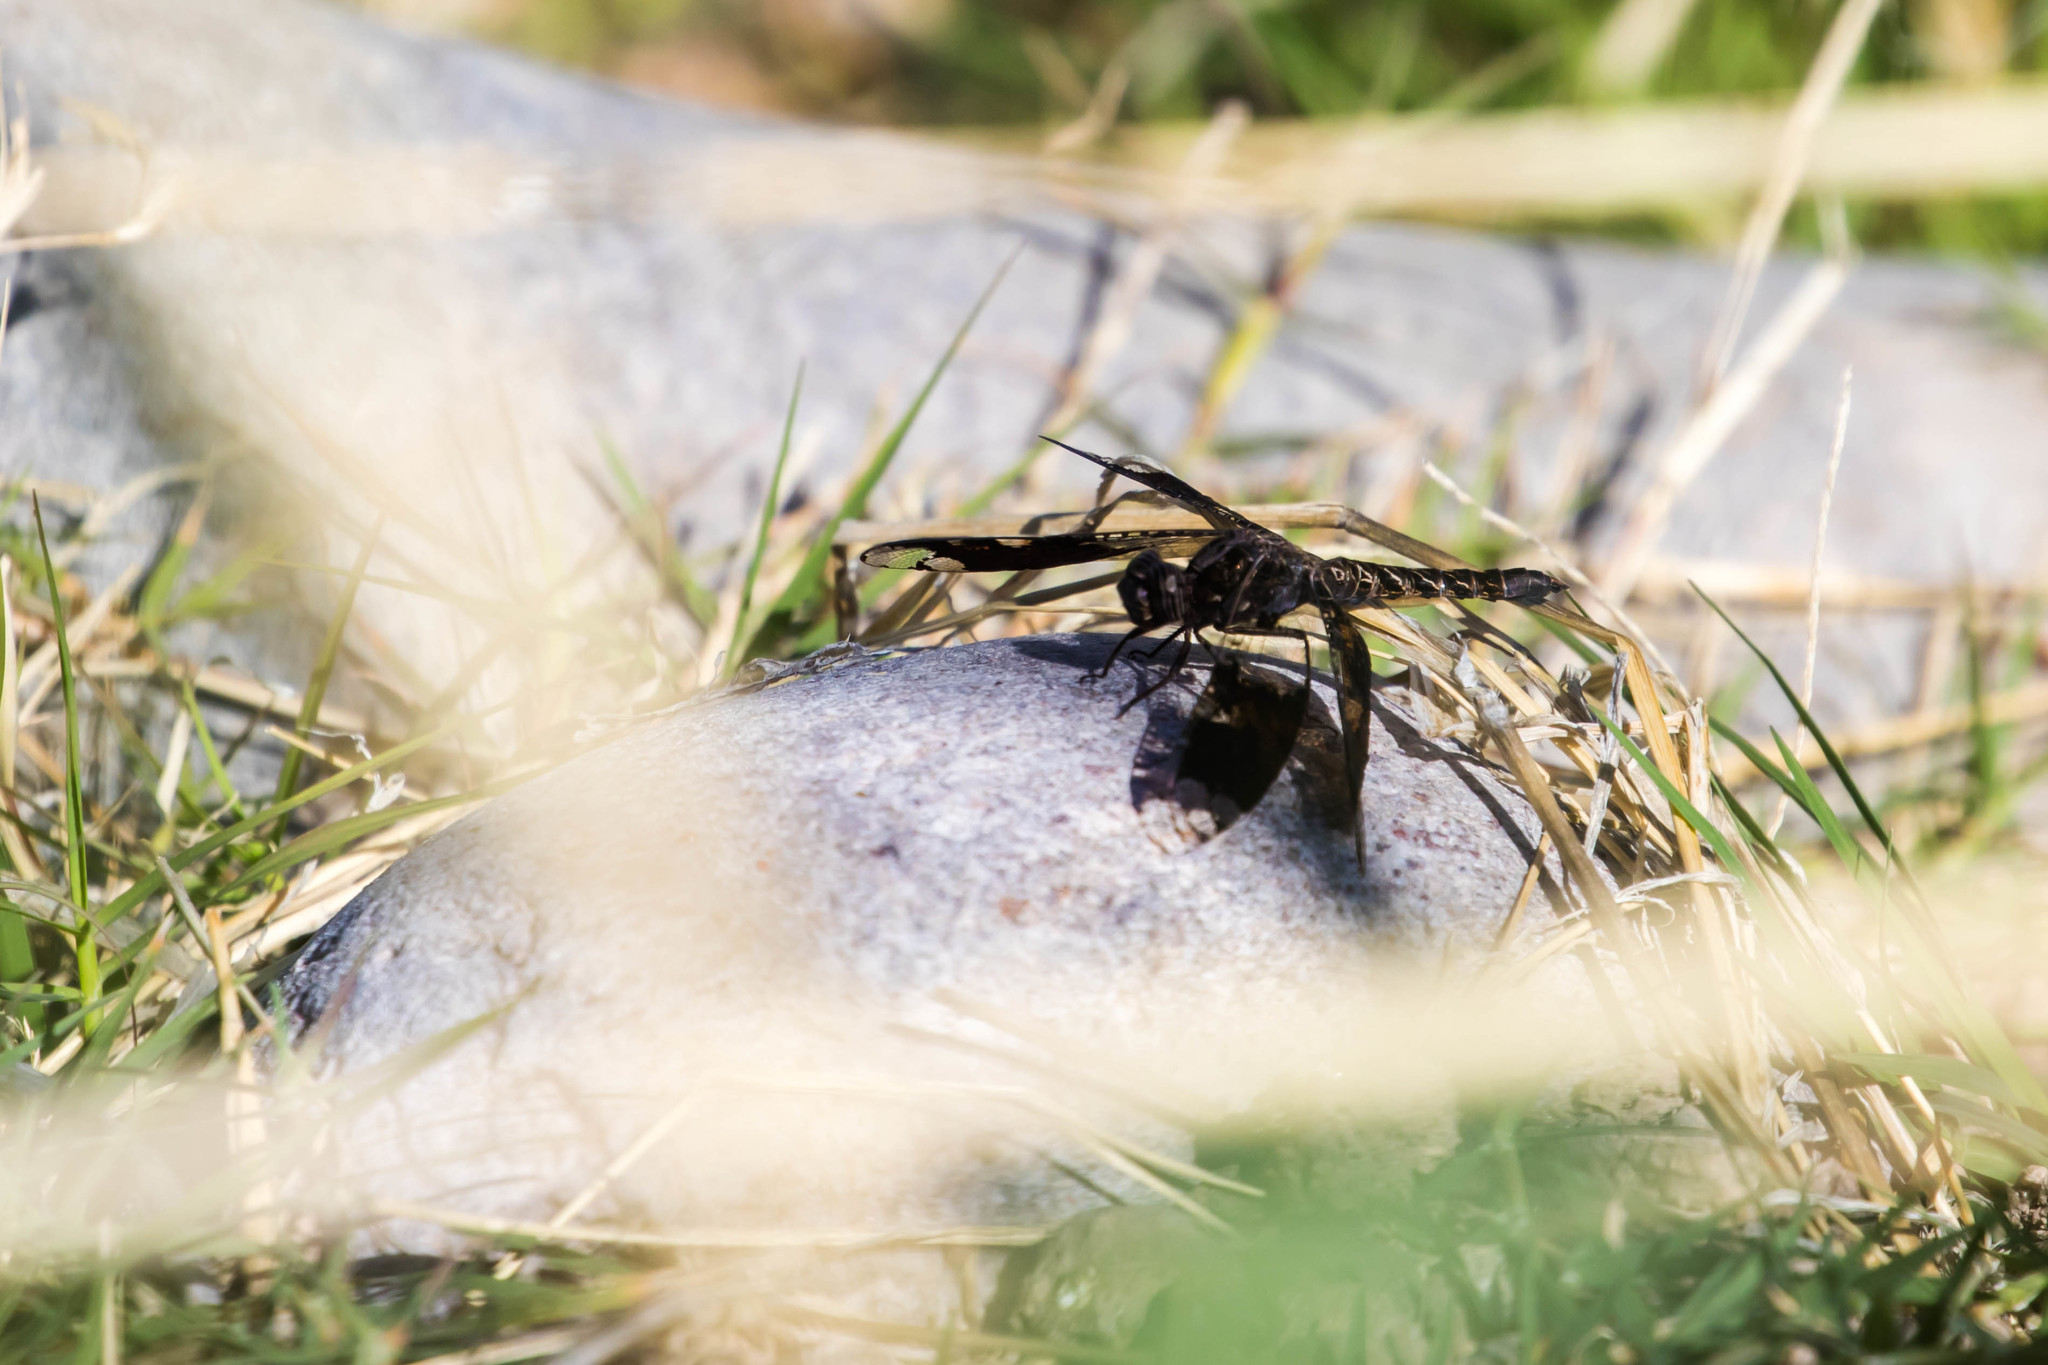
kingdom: Animalia
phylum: Arthropoda
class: Insecta
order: Odonata
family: Libellulidae
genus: Pseudoleon
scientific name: Pseudoleon superbus
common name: Filigree skimmer
